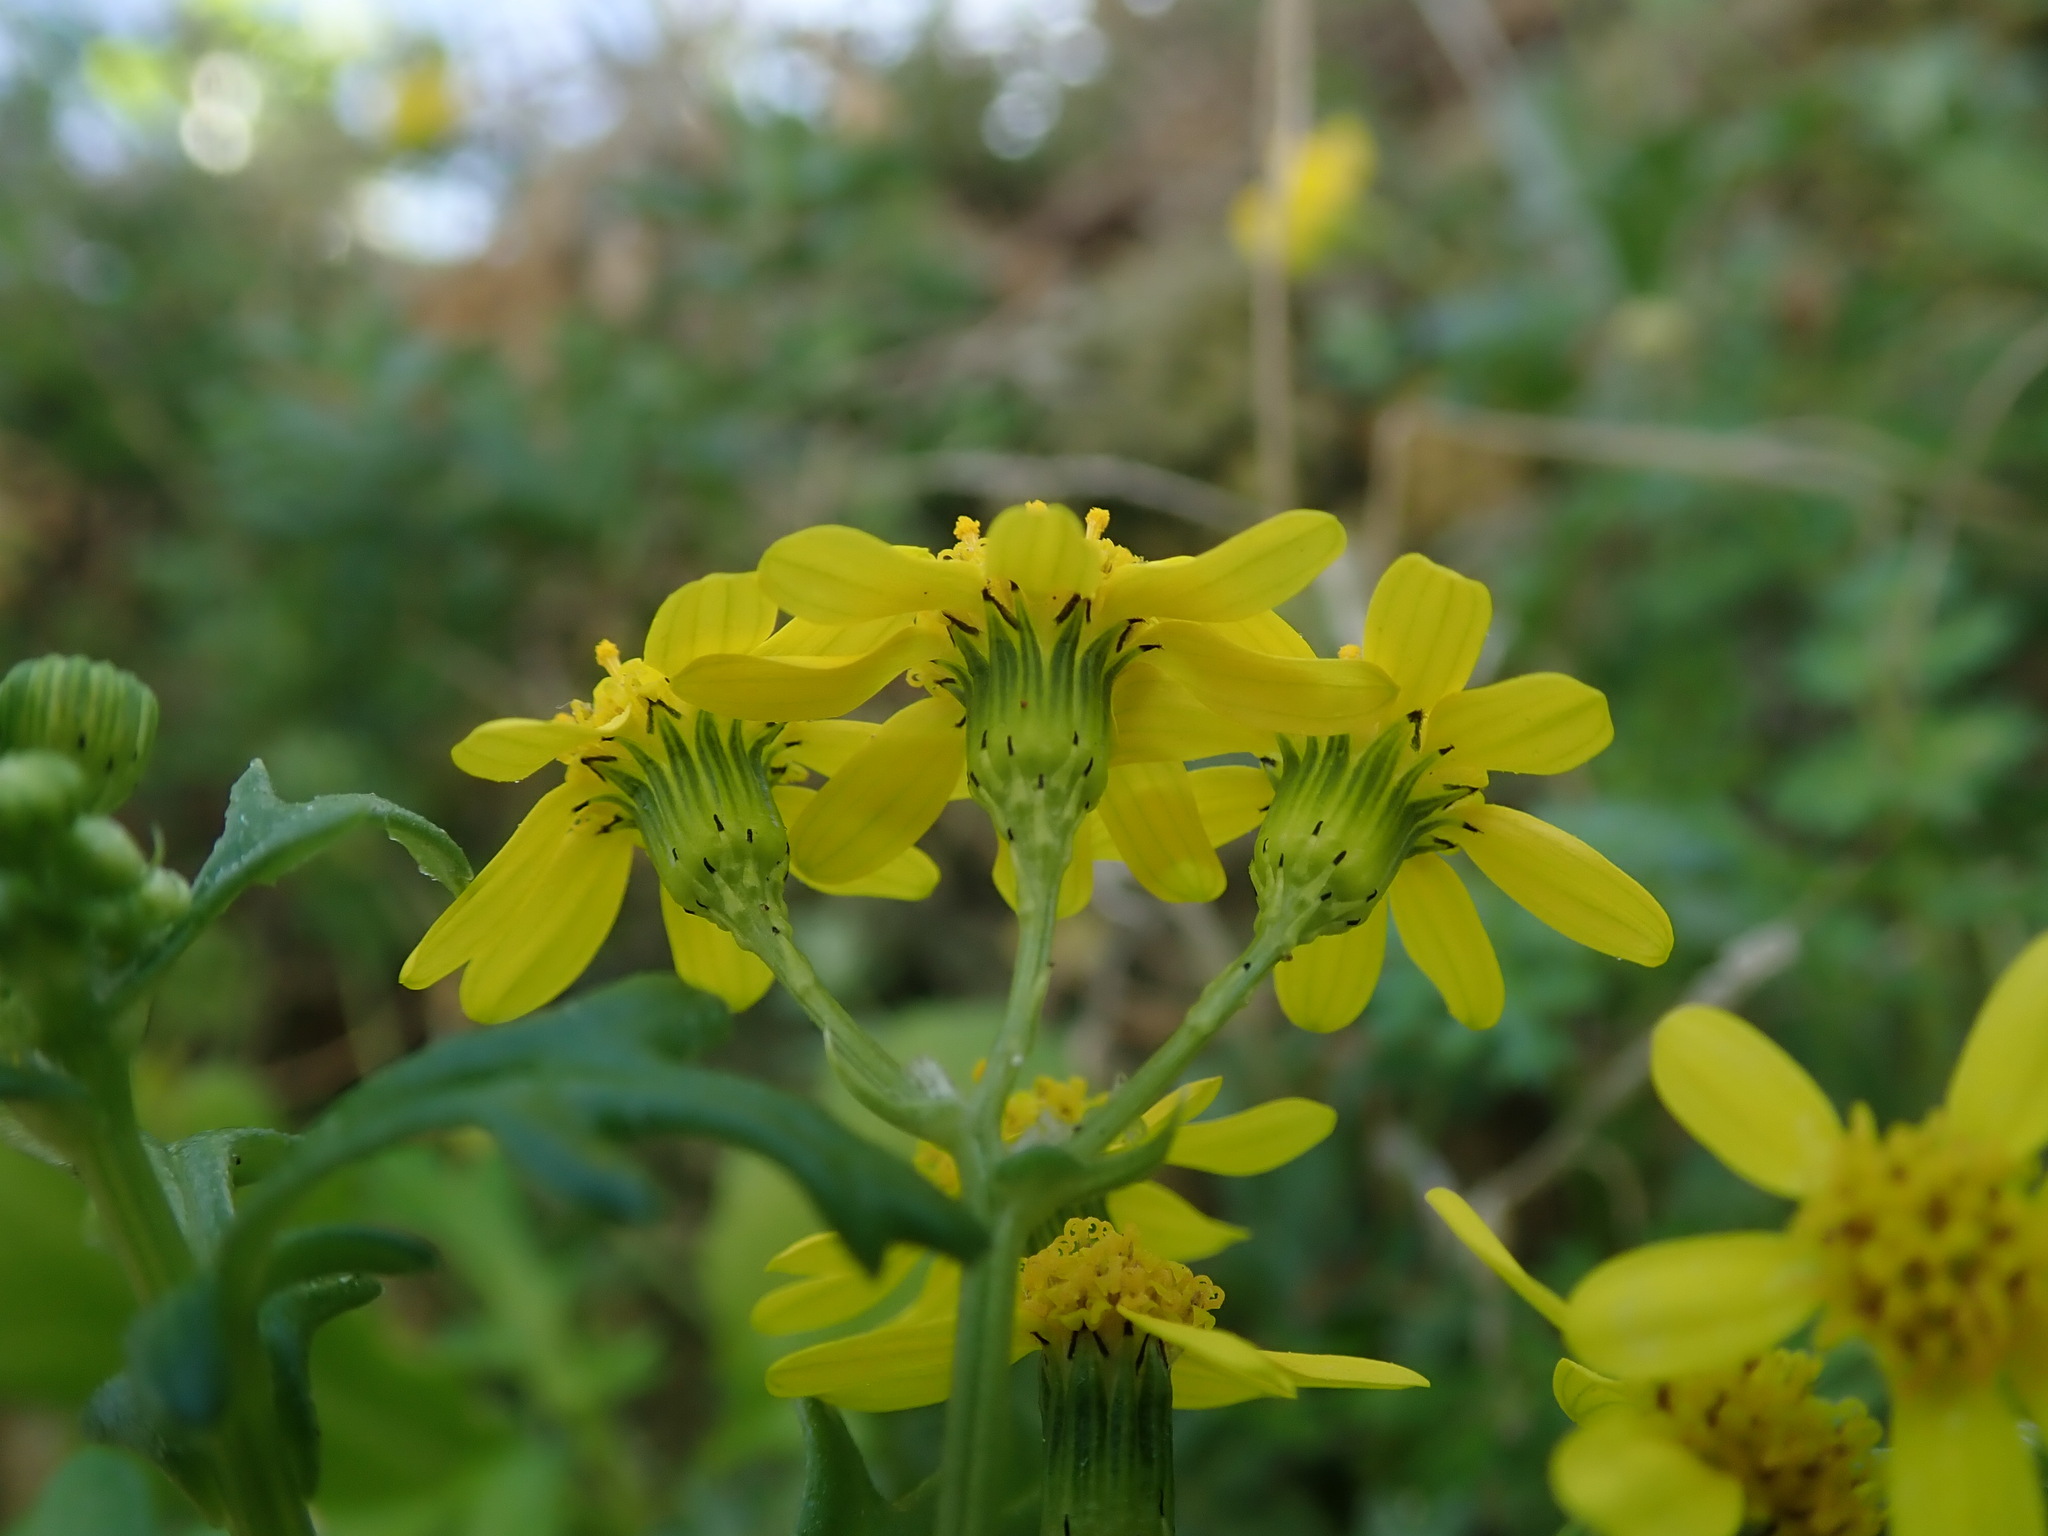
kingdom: Plantae
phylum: Tracheophyta
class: Magnoliopsida
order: Asterales
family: Asteraceae
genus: Senecio
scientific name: Senecio leucanthemifolius
